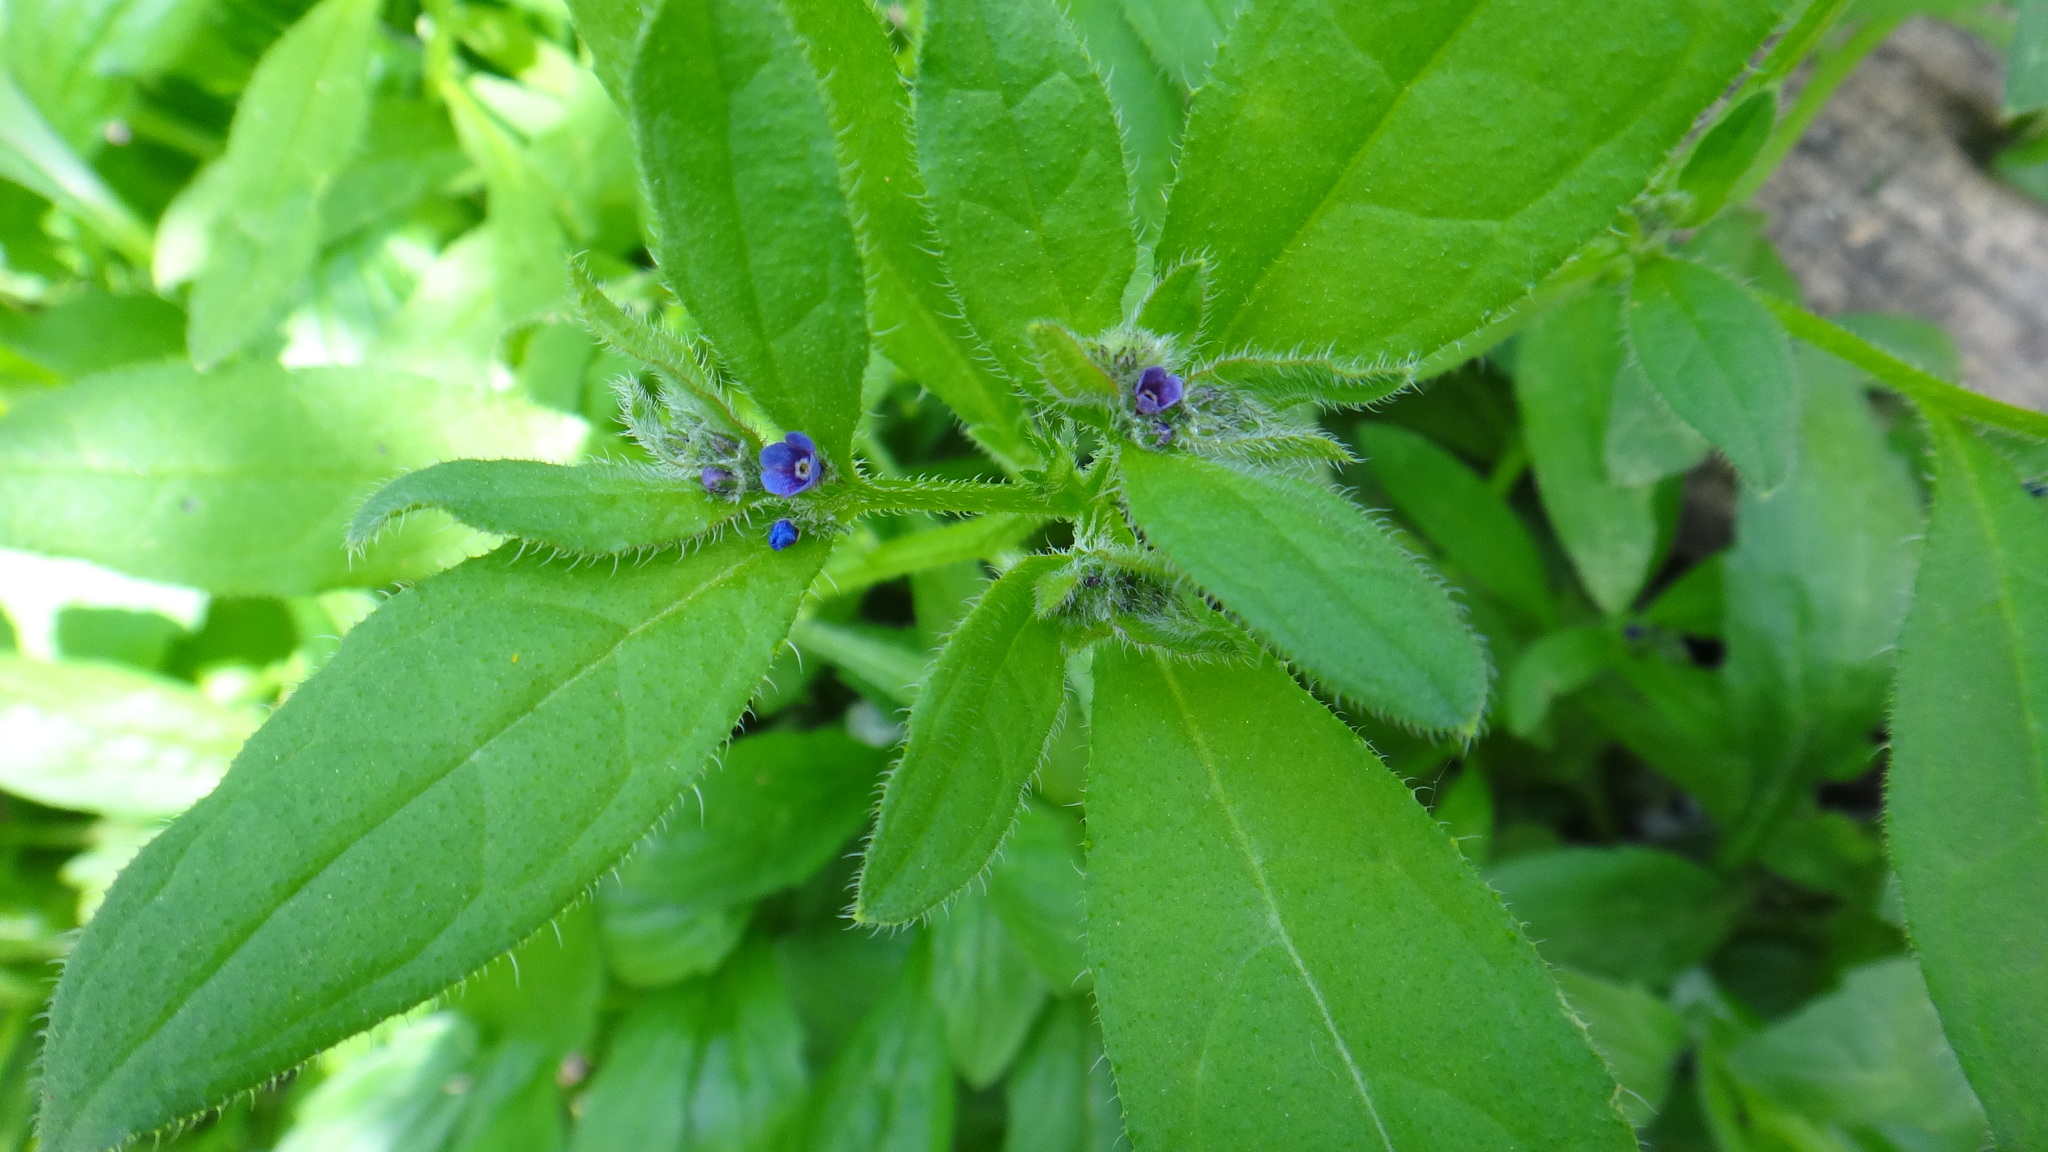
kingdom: Plantae
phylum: Tracheophyta
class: Magnoliopsida
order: Boraginales
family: Boraginaceae
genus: Asperugo
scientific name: Asperugo procumbens
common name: Madwort
